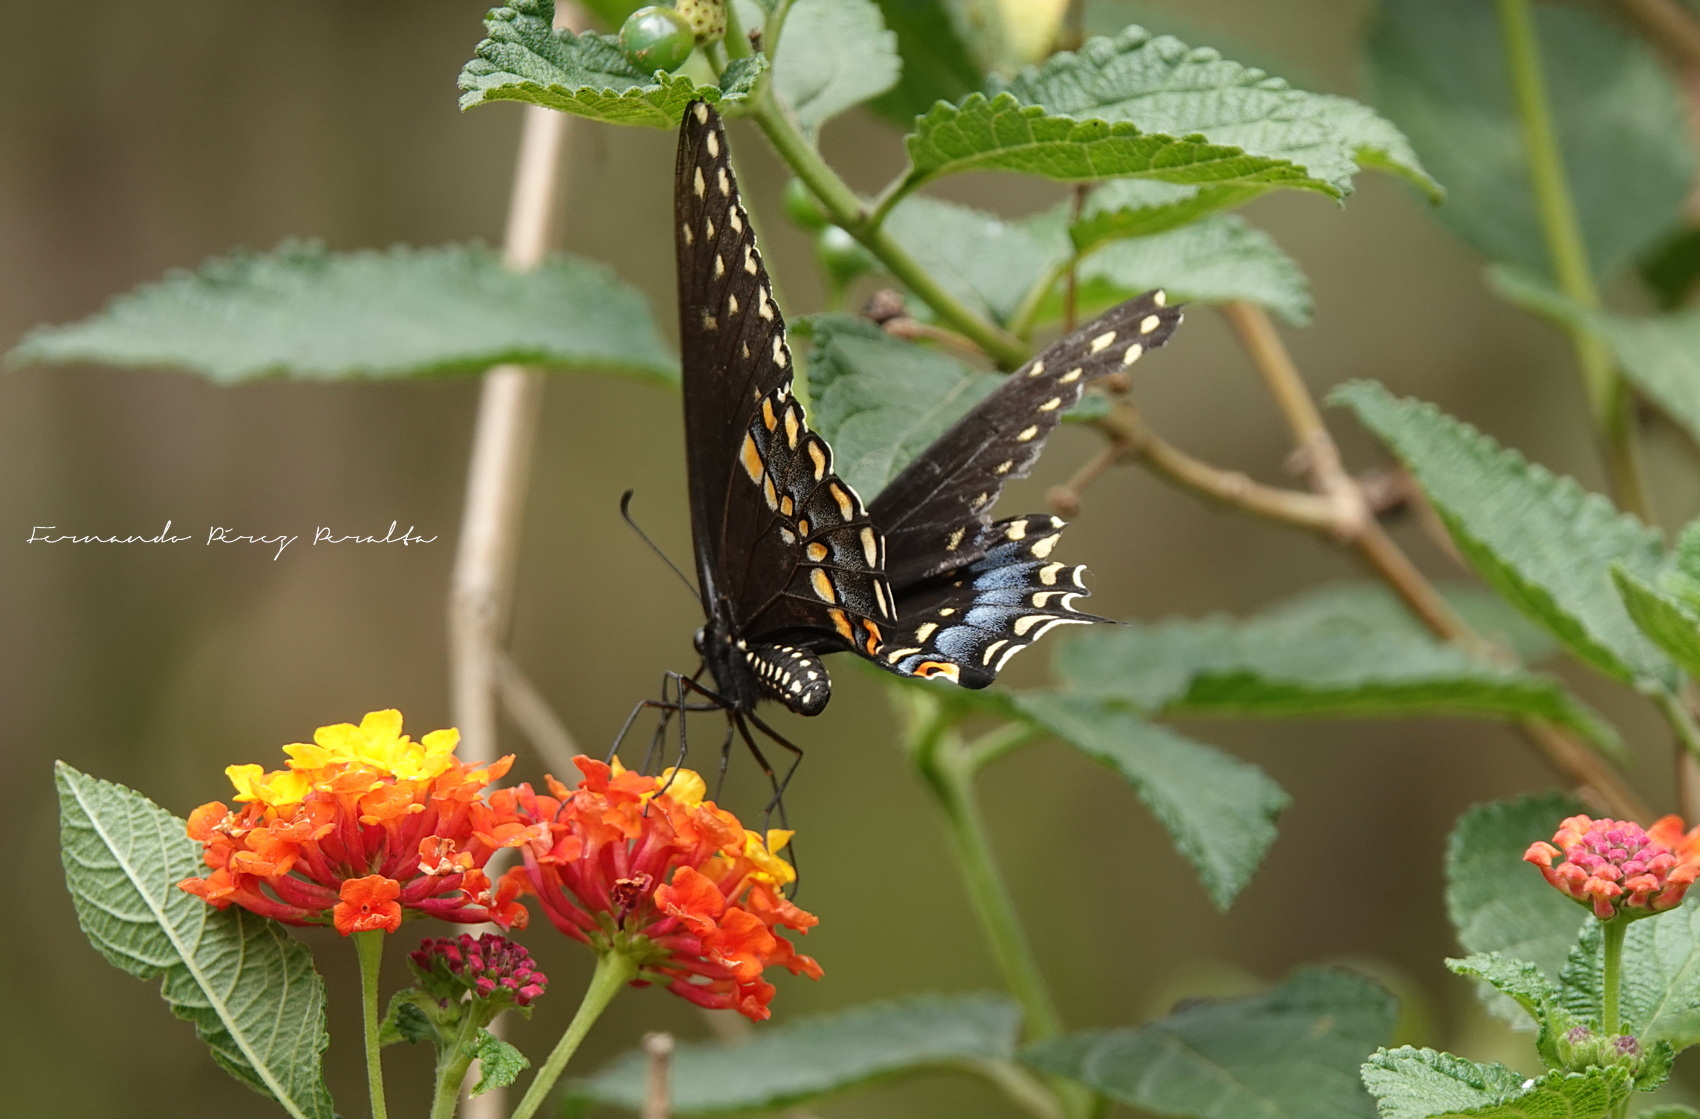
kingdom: Animalia
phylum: Arthropoda
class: Insecta
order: Lepidoptera
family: Papilionidae
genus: Papilio
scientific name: Papilio polyxenes
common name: Black swallowtail
